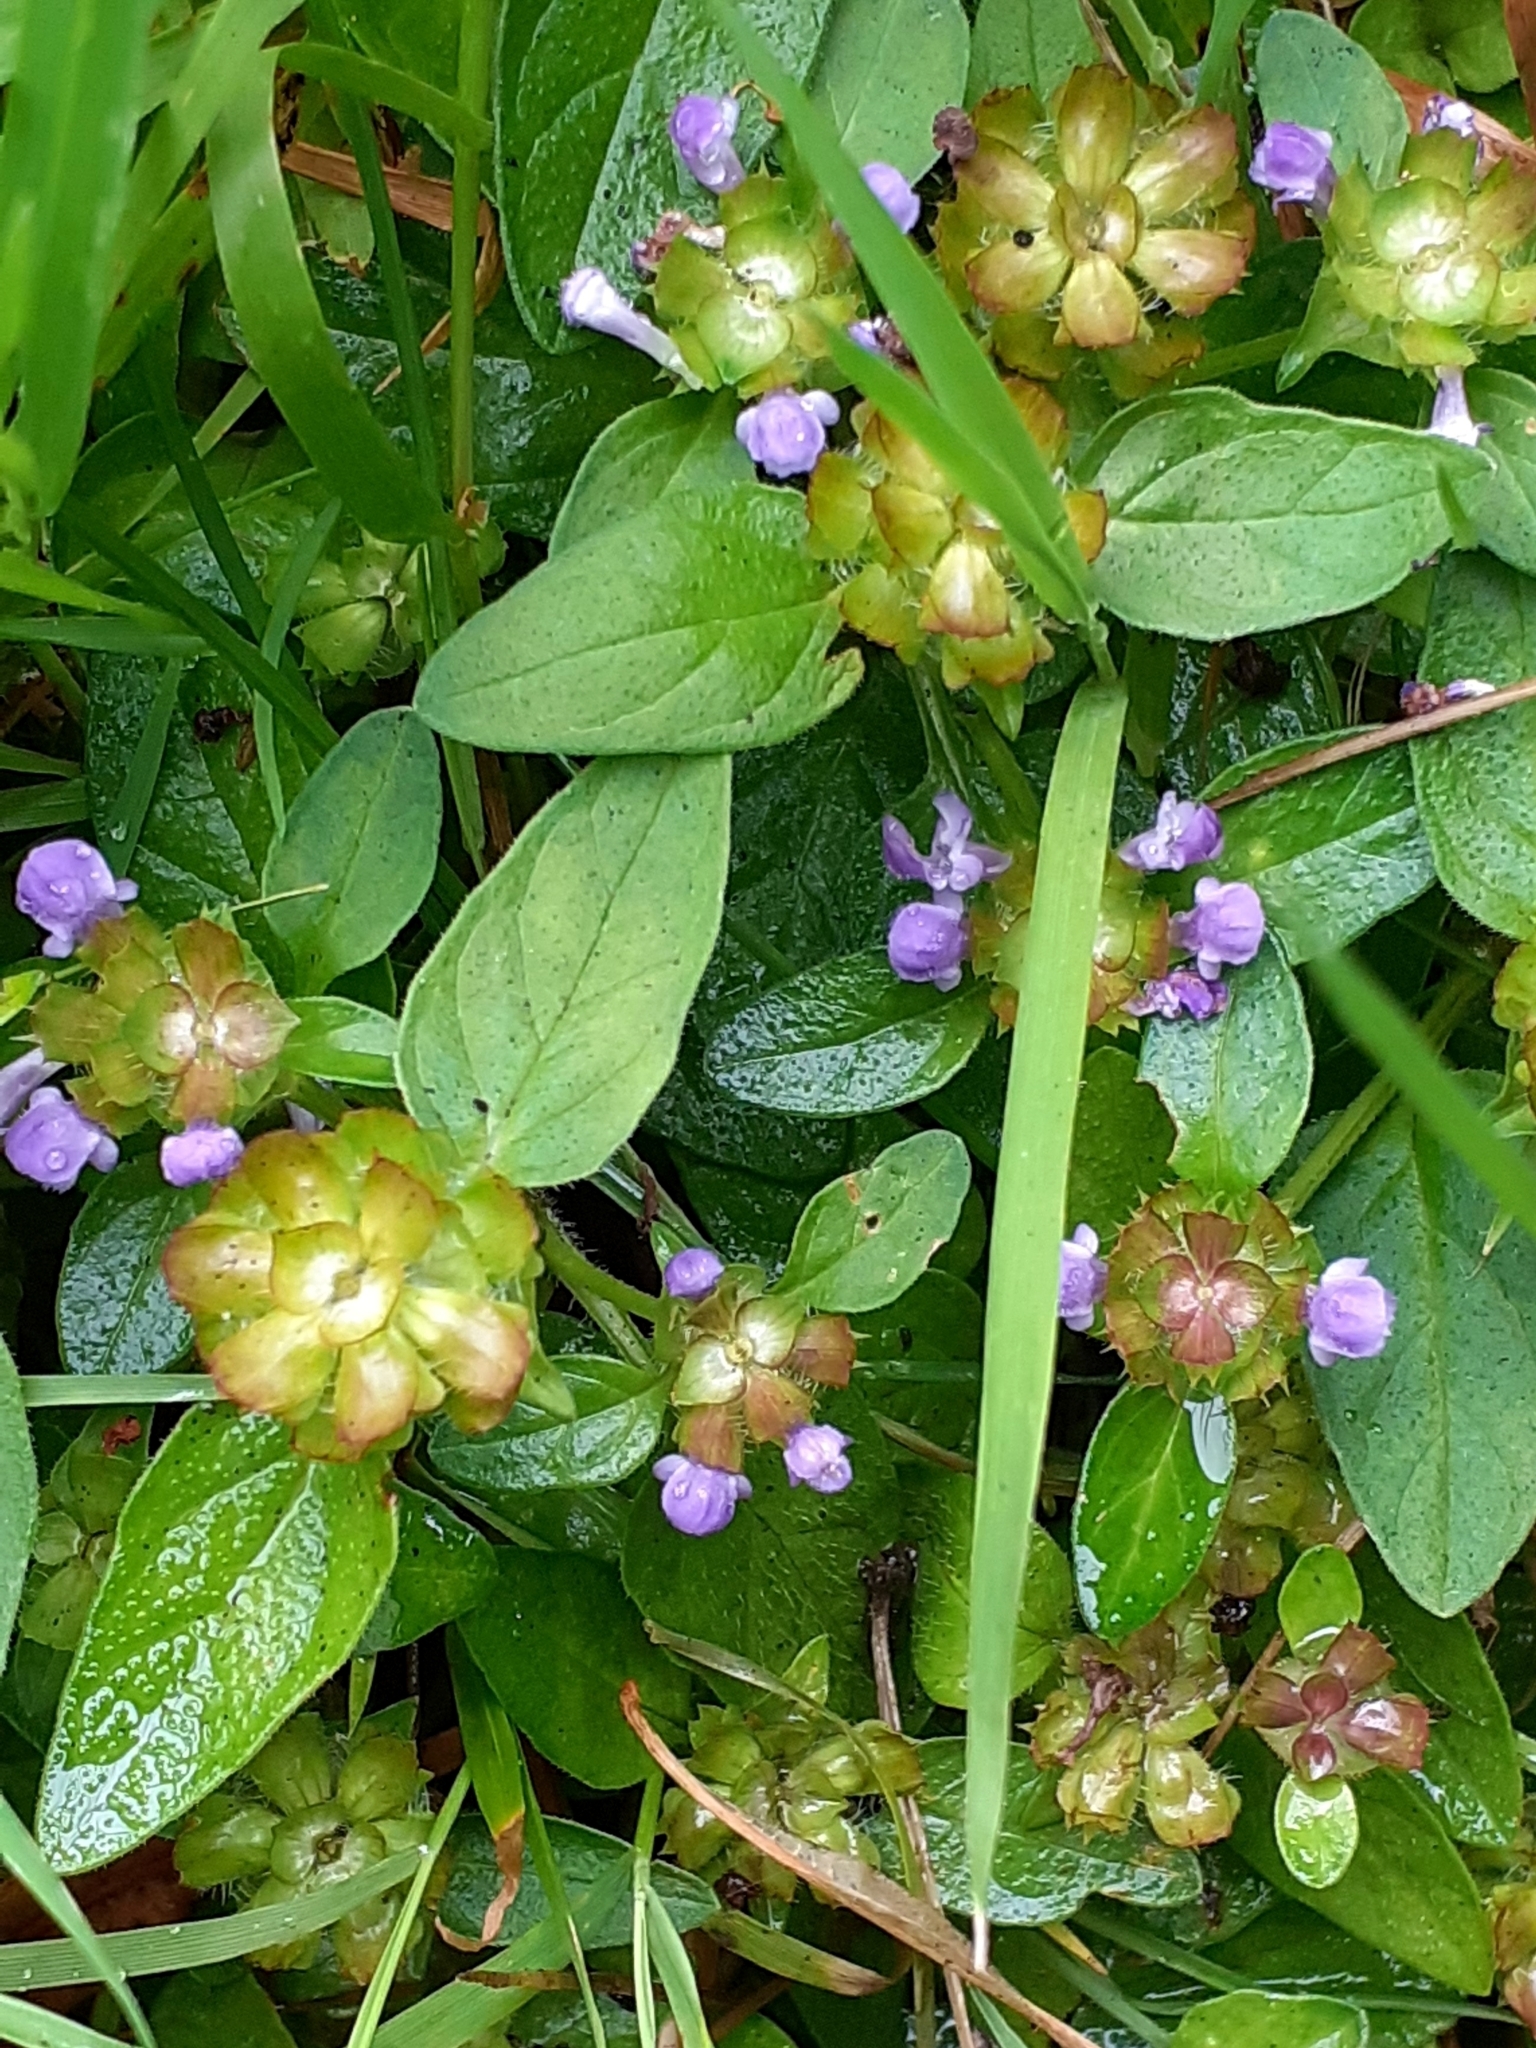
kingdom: Plantae
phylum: Tracheophyta
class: Magnoliopsida
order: Lamiales
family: Lamiaceae
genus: Prunella
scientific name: Prunella vulgaris
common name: Heal-all
